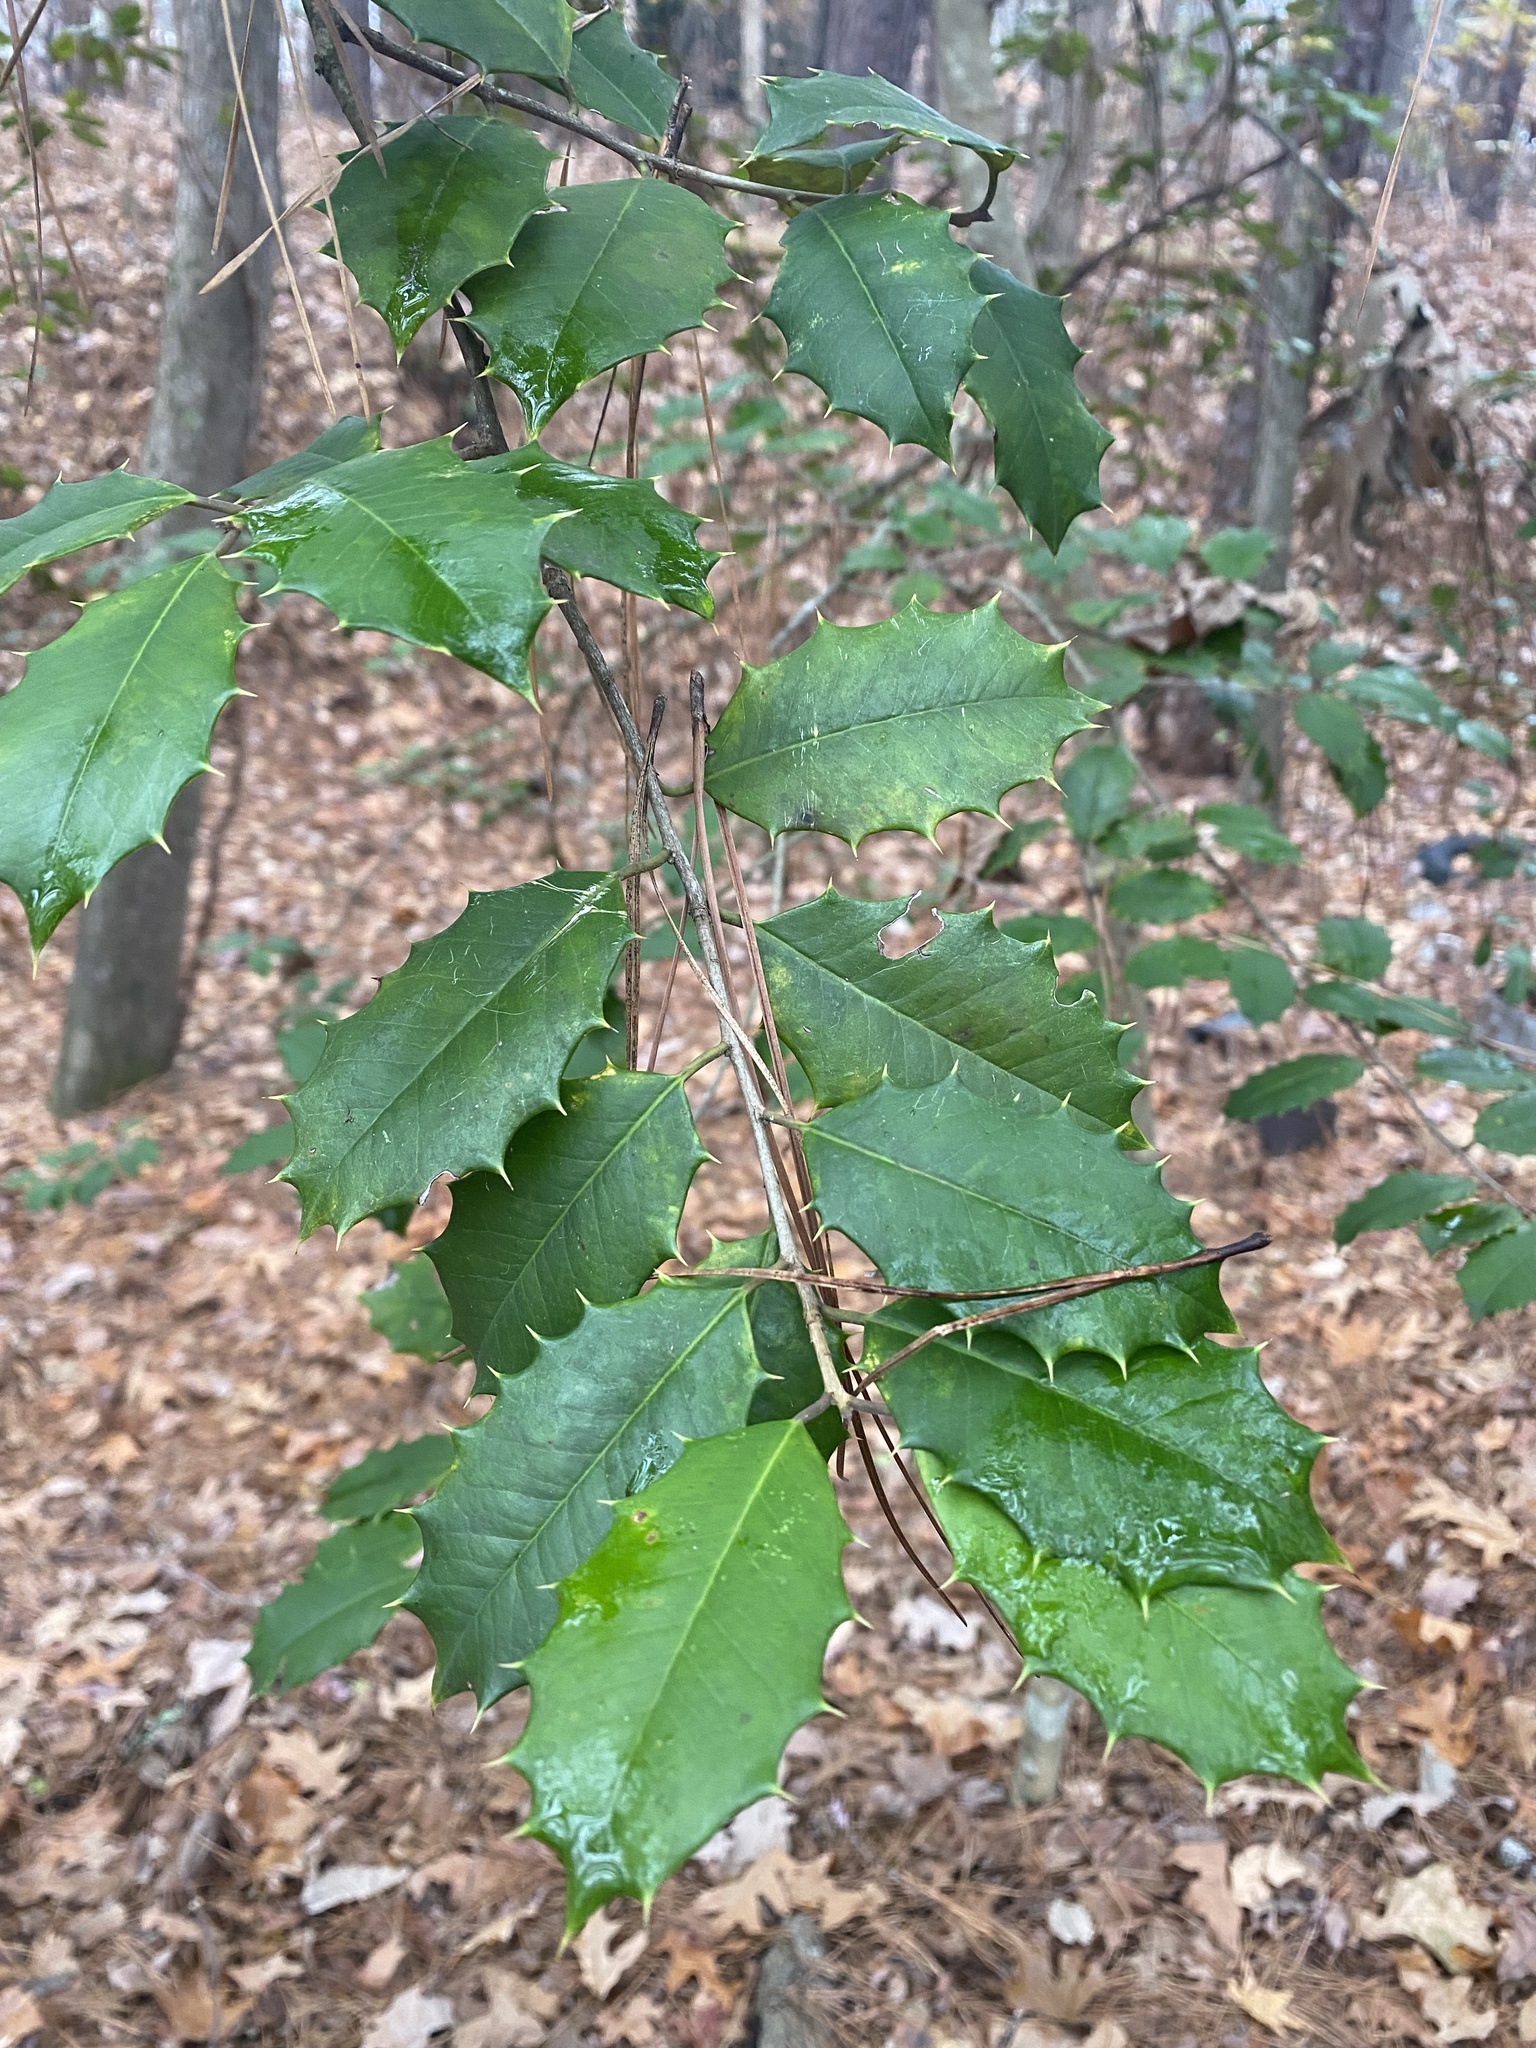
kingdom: Plantae
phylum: Tracheophyta
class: Magnoliopsida
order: Aquifoliales
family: Aquifoliaceae
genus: Ilex
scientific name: Ilex opaca
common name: American holly
